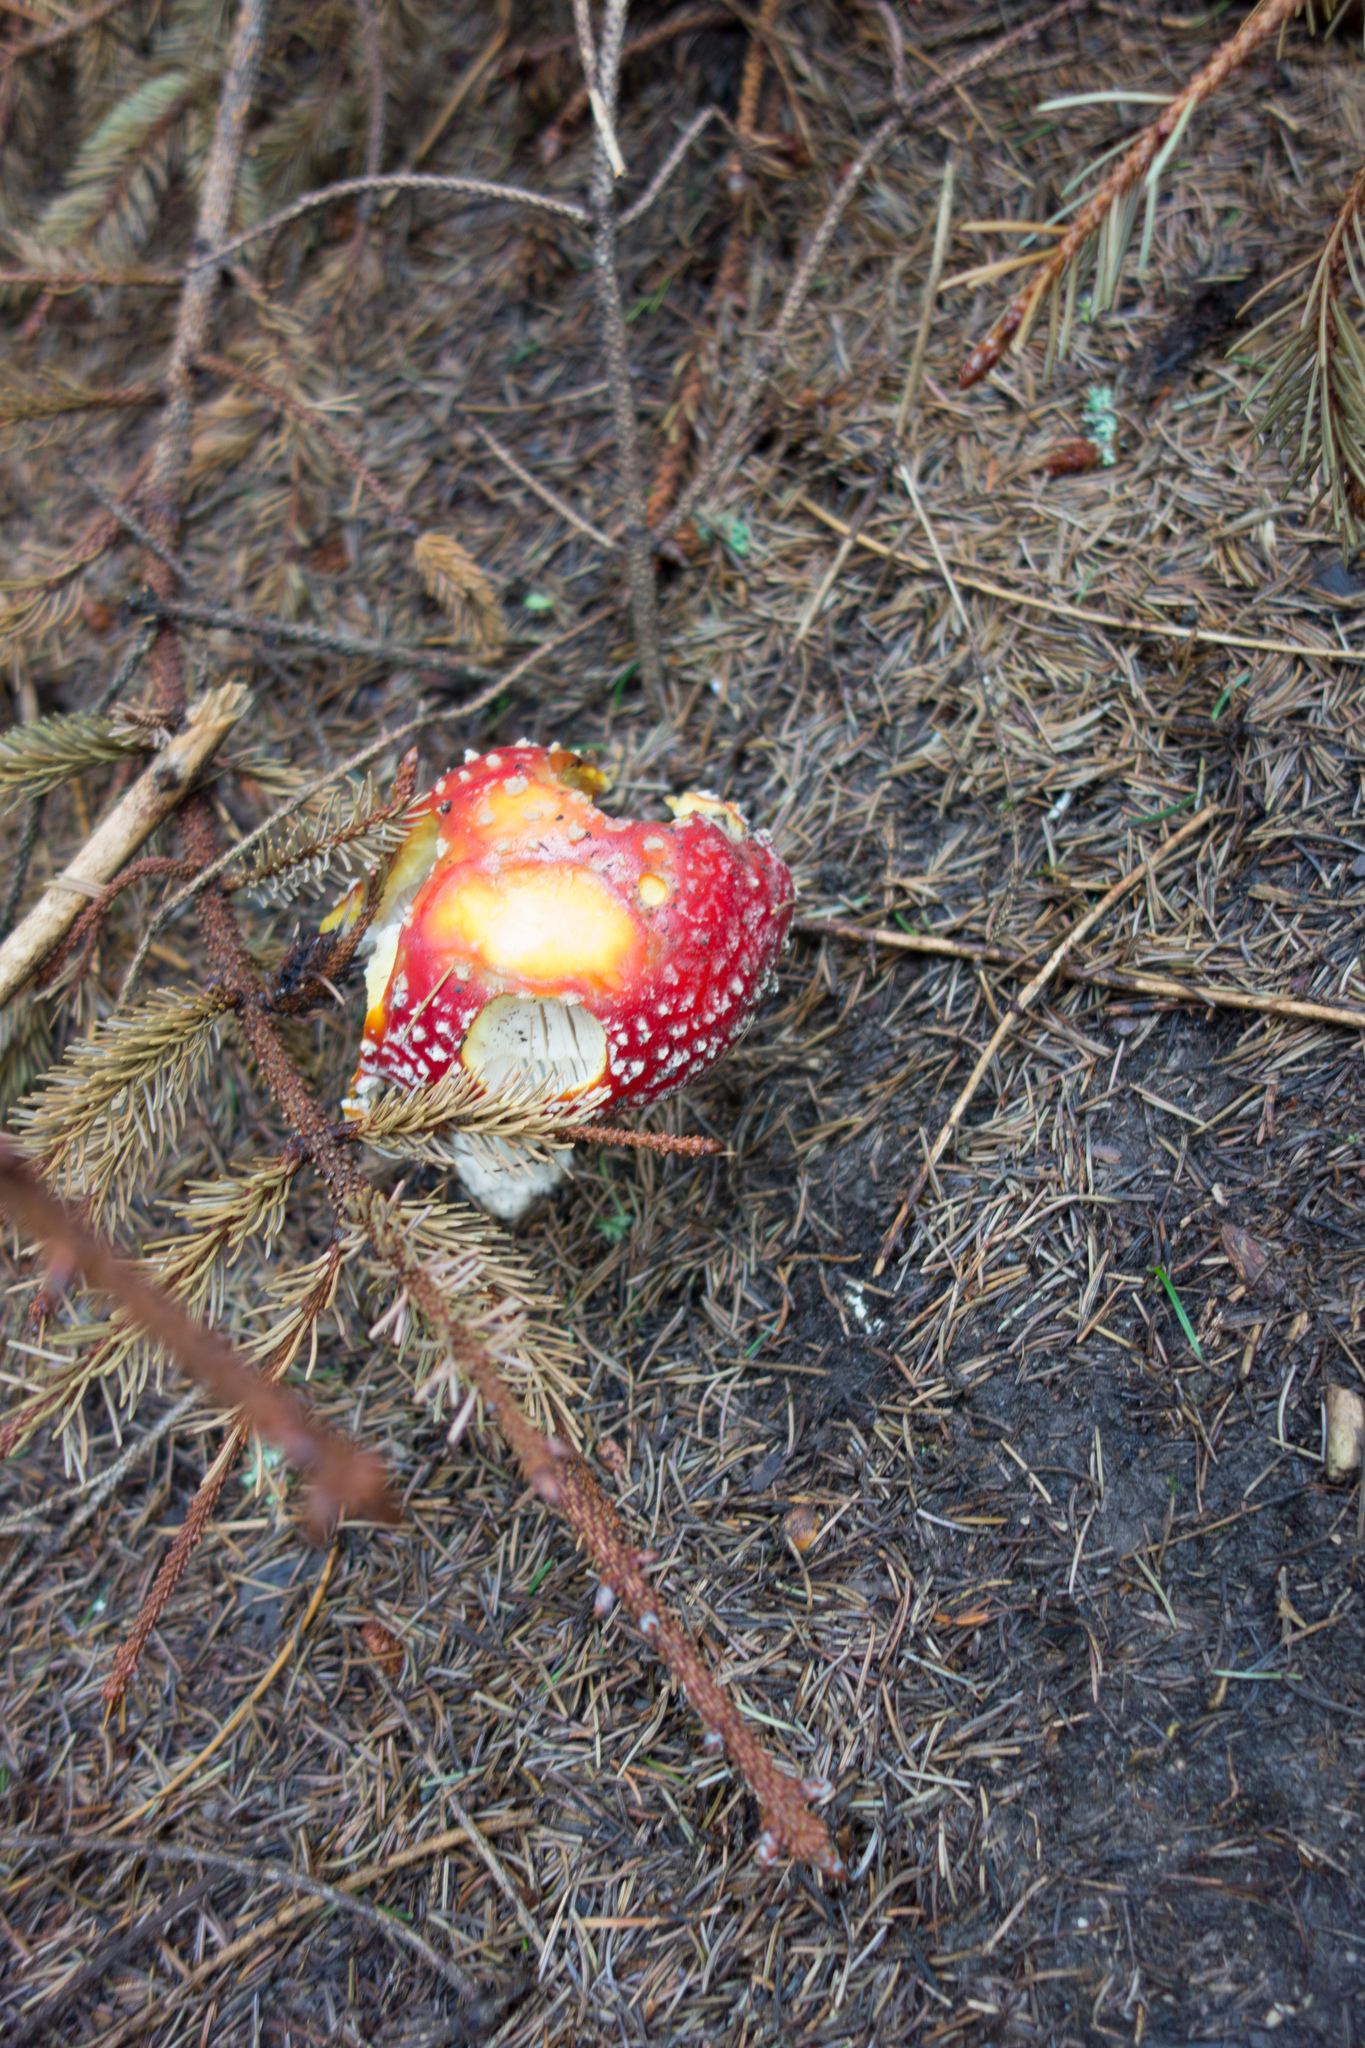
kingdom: Fungi
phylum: Basidiomycota
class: Agaricomycetes
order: Agaricales
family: Amanitaceae
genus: Amanita
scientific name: Amanita muscaria
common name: Fly agaric
